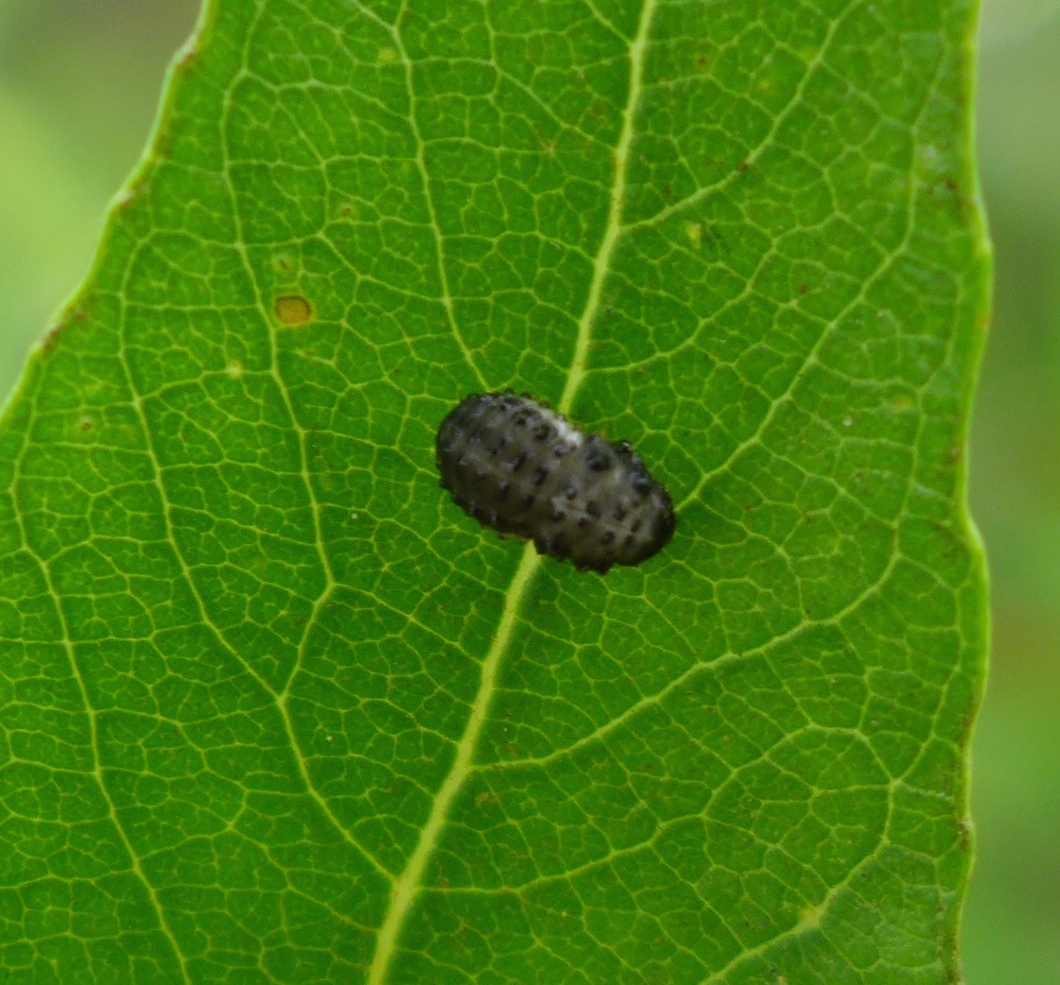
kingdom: Animalia
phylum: Arthropoda
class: Insecta
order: Coleoptera
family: Chrysomelidae
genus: Plagiodera
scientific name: Plagiodera californica
